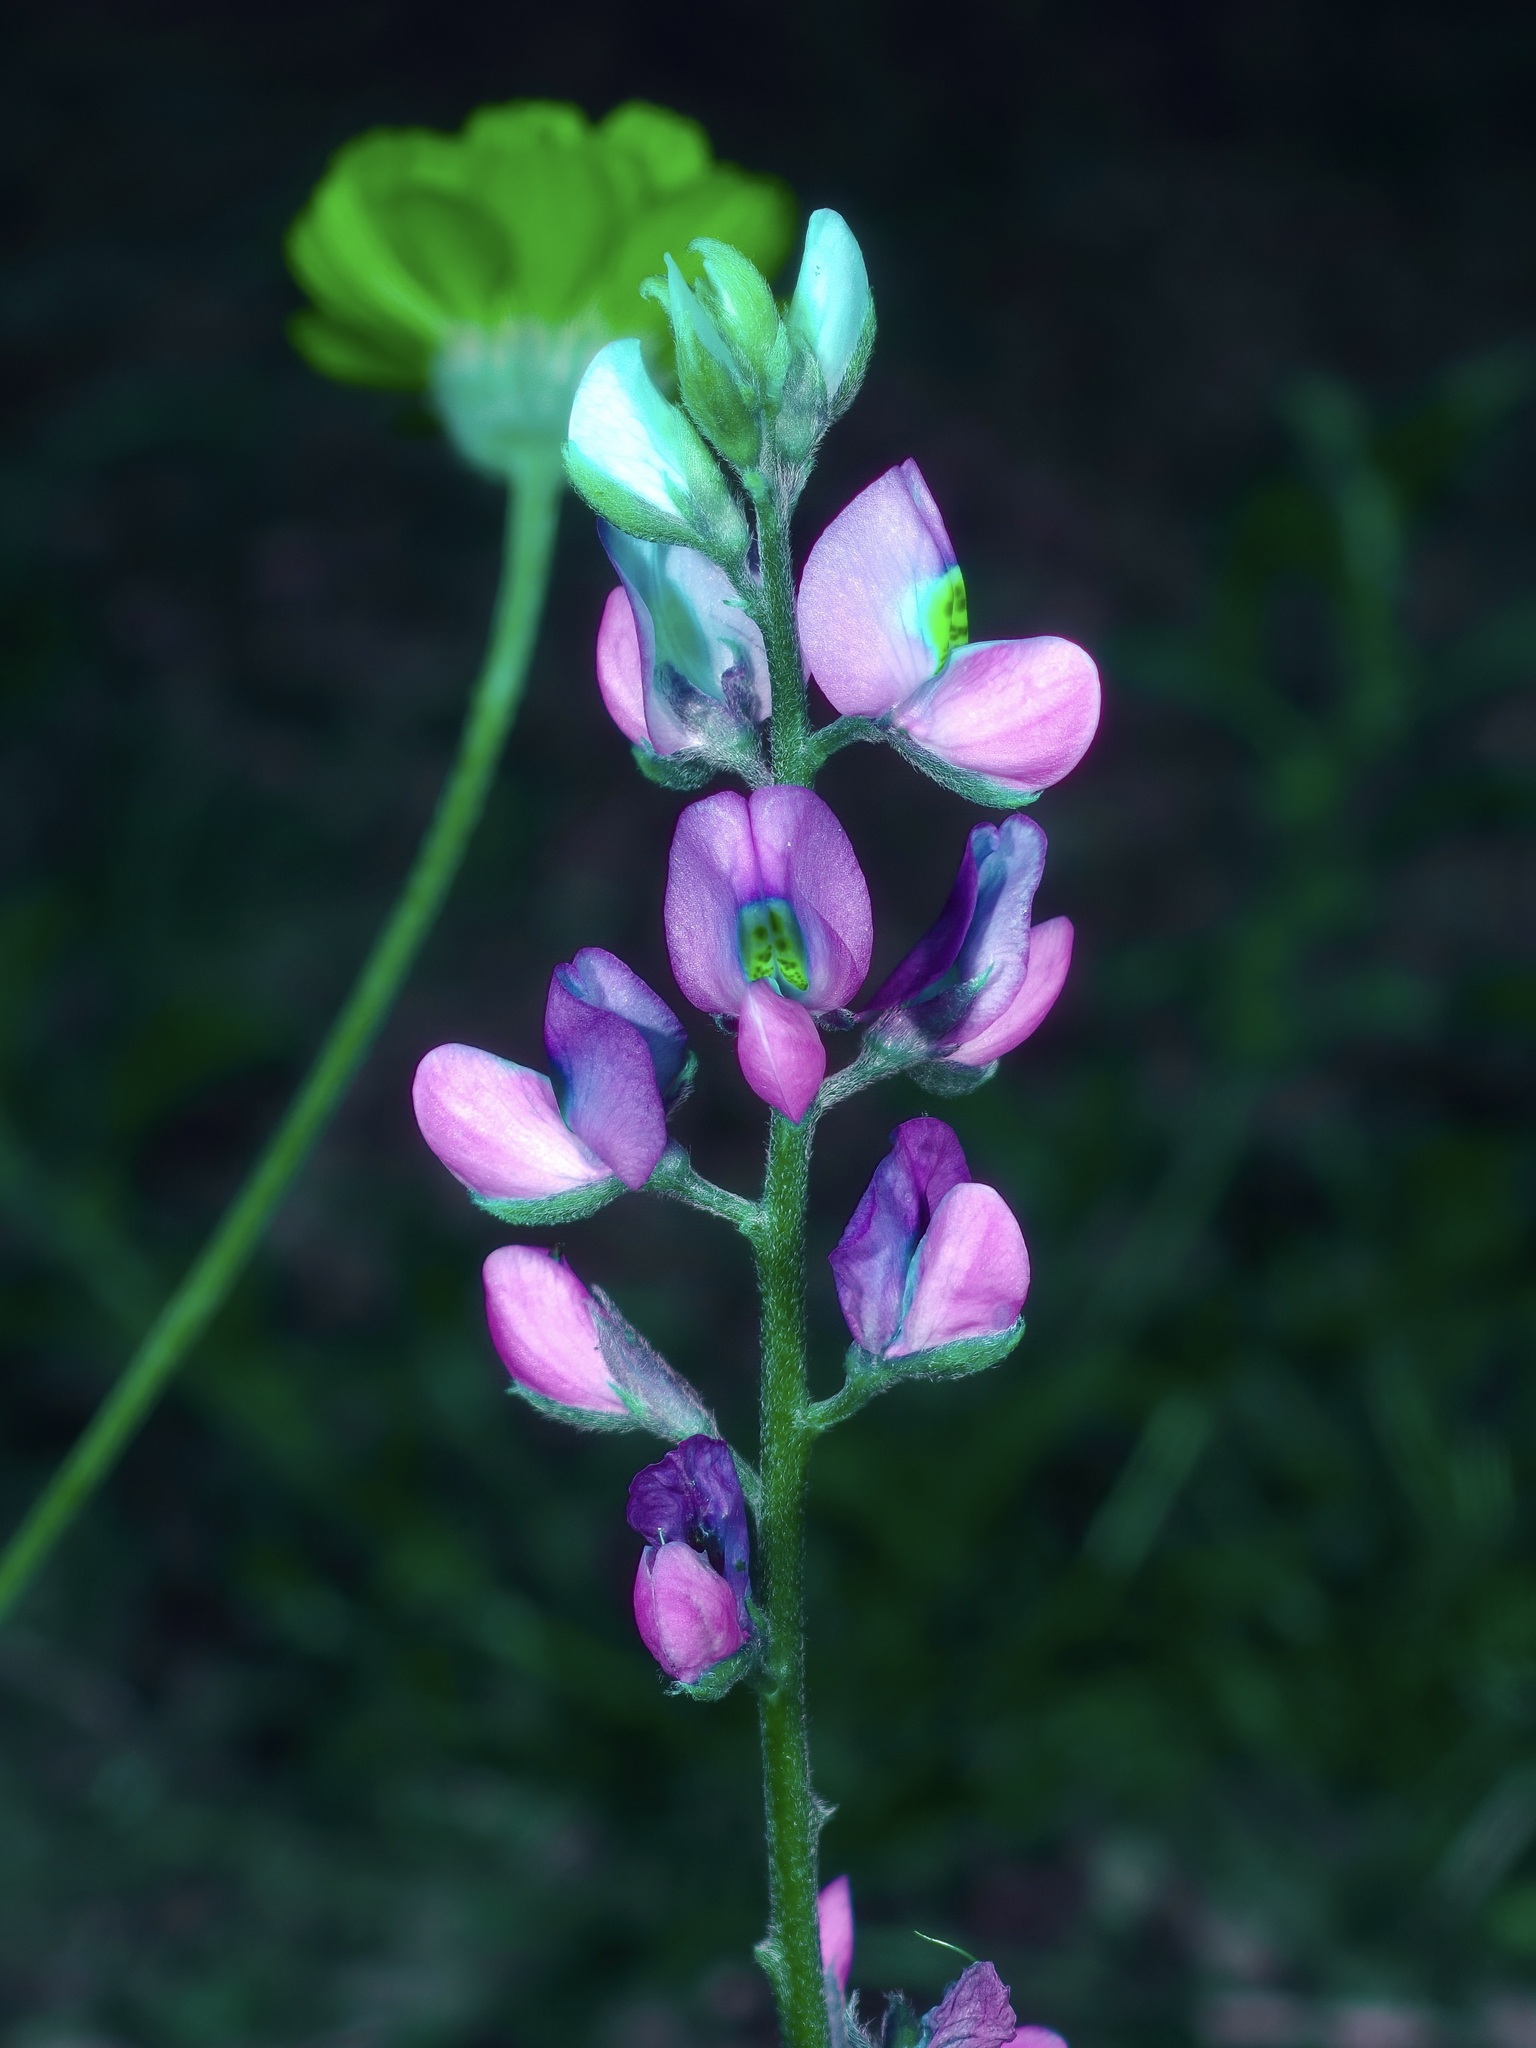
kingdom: Plantae
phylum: Tracheophyta
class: Magnoliopsida
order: Fabales
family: Fabaceae
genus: Lupinus
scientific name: Lupinus havardii
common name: Chisos bluebonnet
